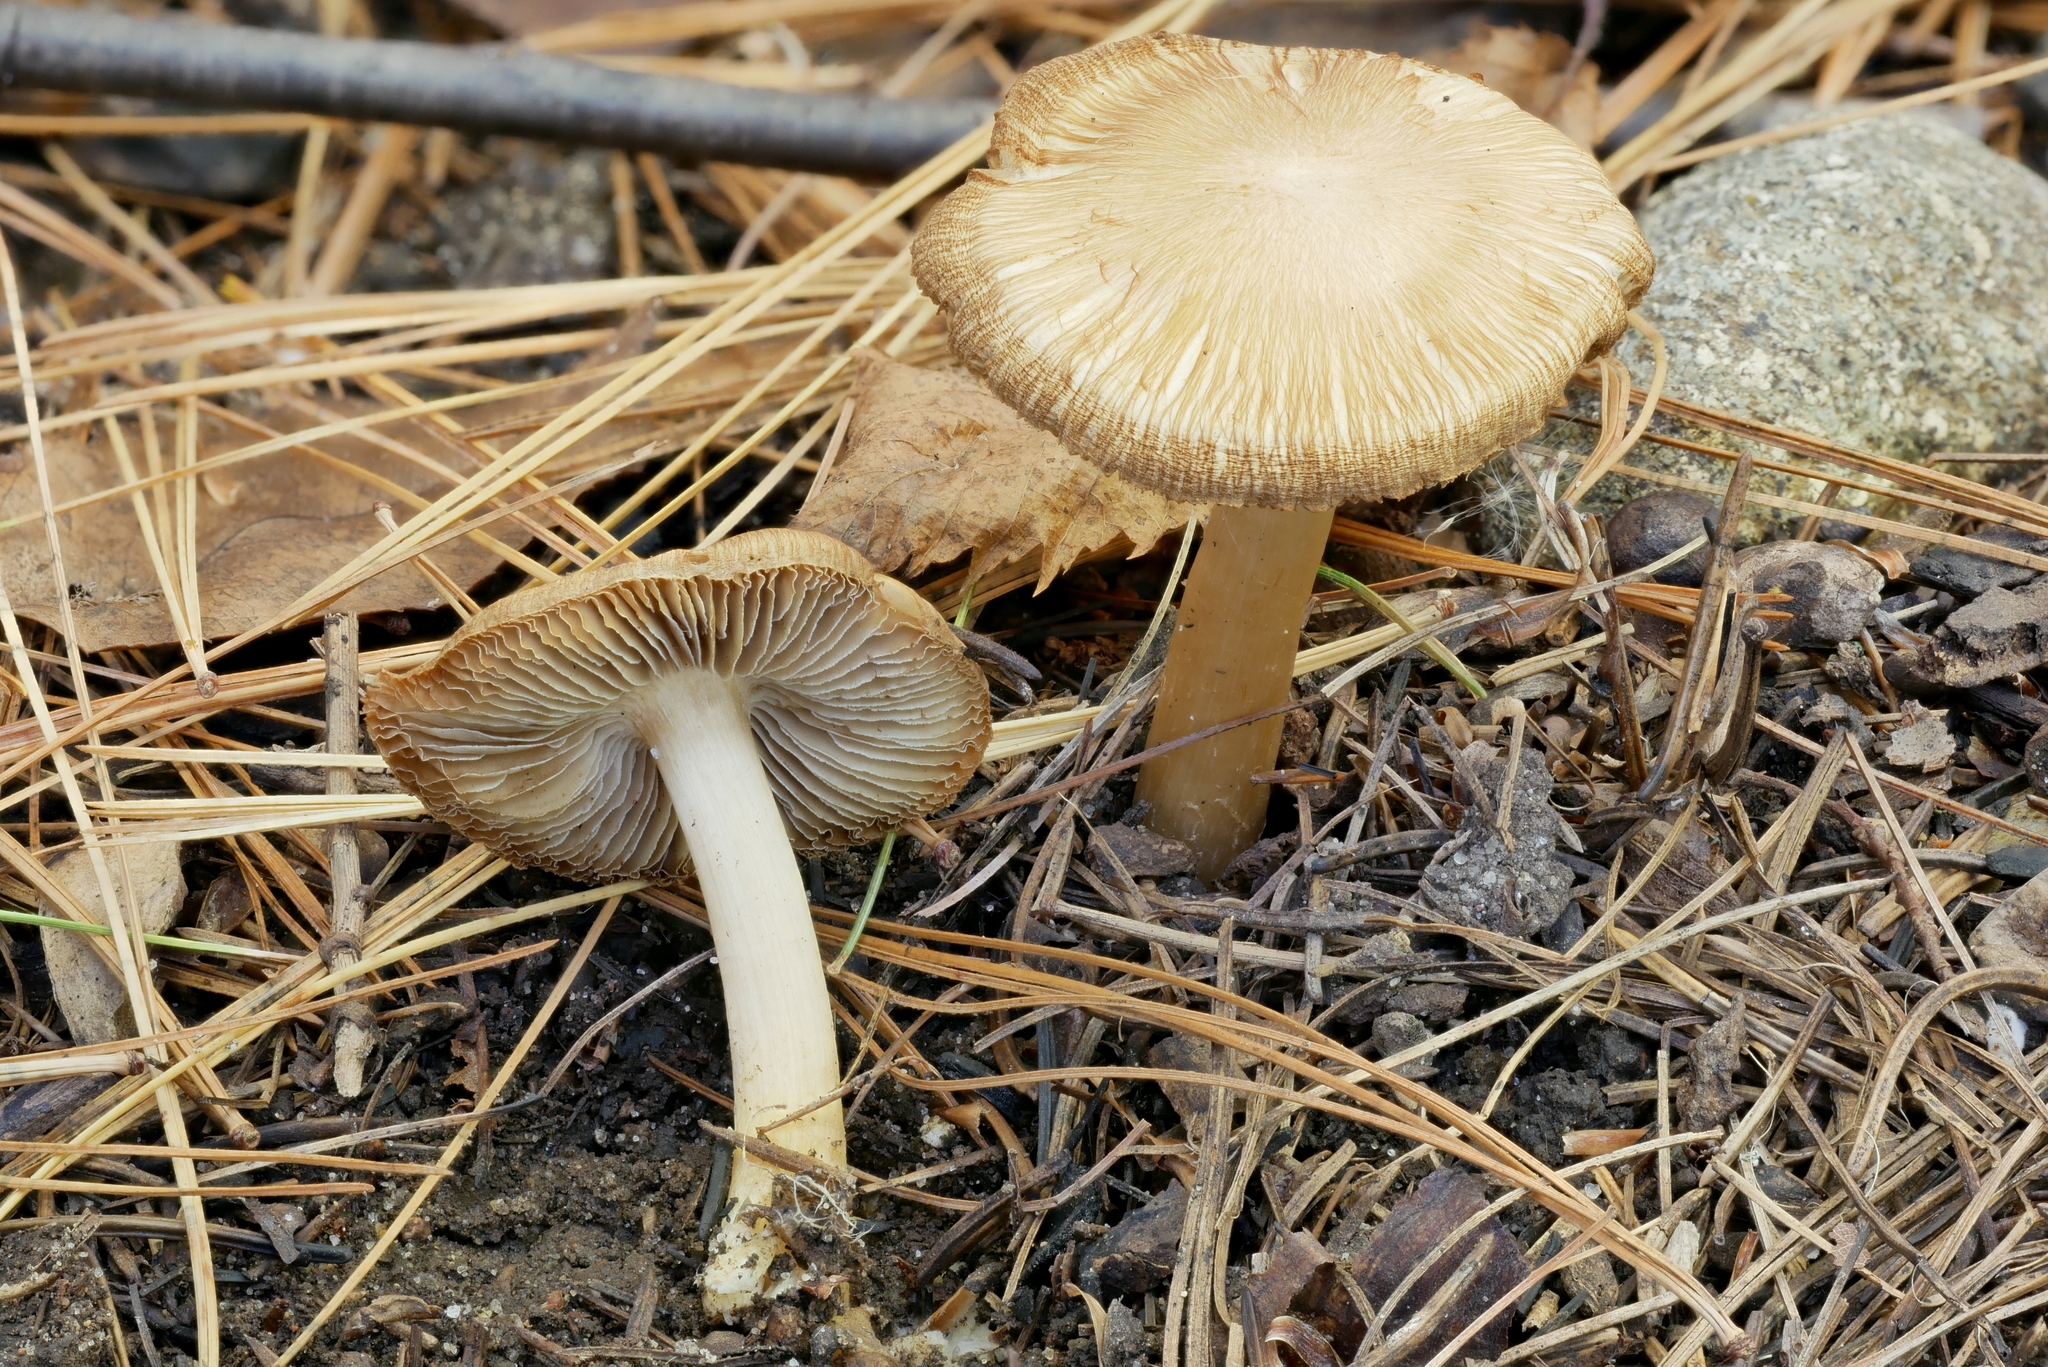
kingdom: Fungi
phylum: Basidiomycota
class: Agaricomycetes
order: Agaricales
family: Inocybaceae
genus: Inosperma
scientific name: Inosperma rimosoides
